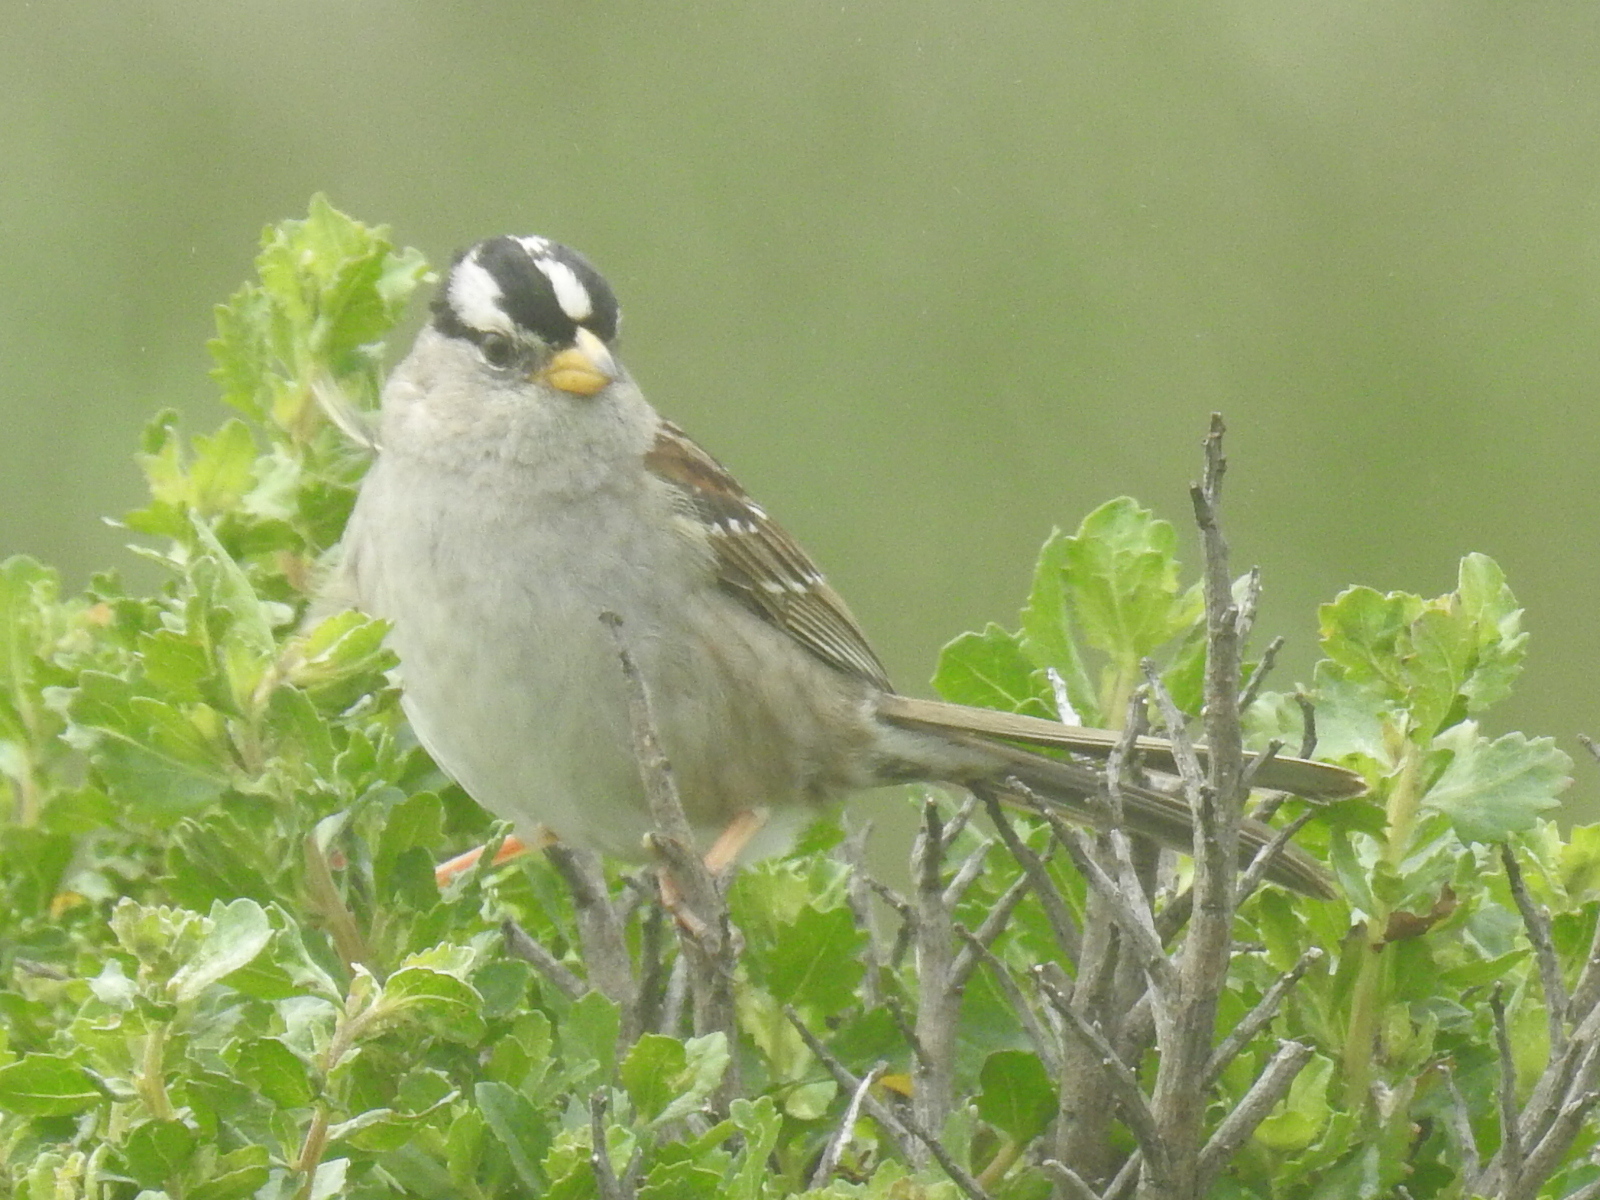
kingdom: Animalia
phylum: Chordata
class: Aves
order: Passeriformes
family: Passerellidae
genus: Zonotrichia
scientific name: Zonotrichia leucophrys
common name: White-crowned sparrow
